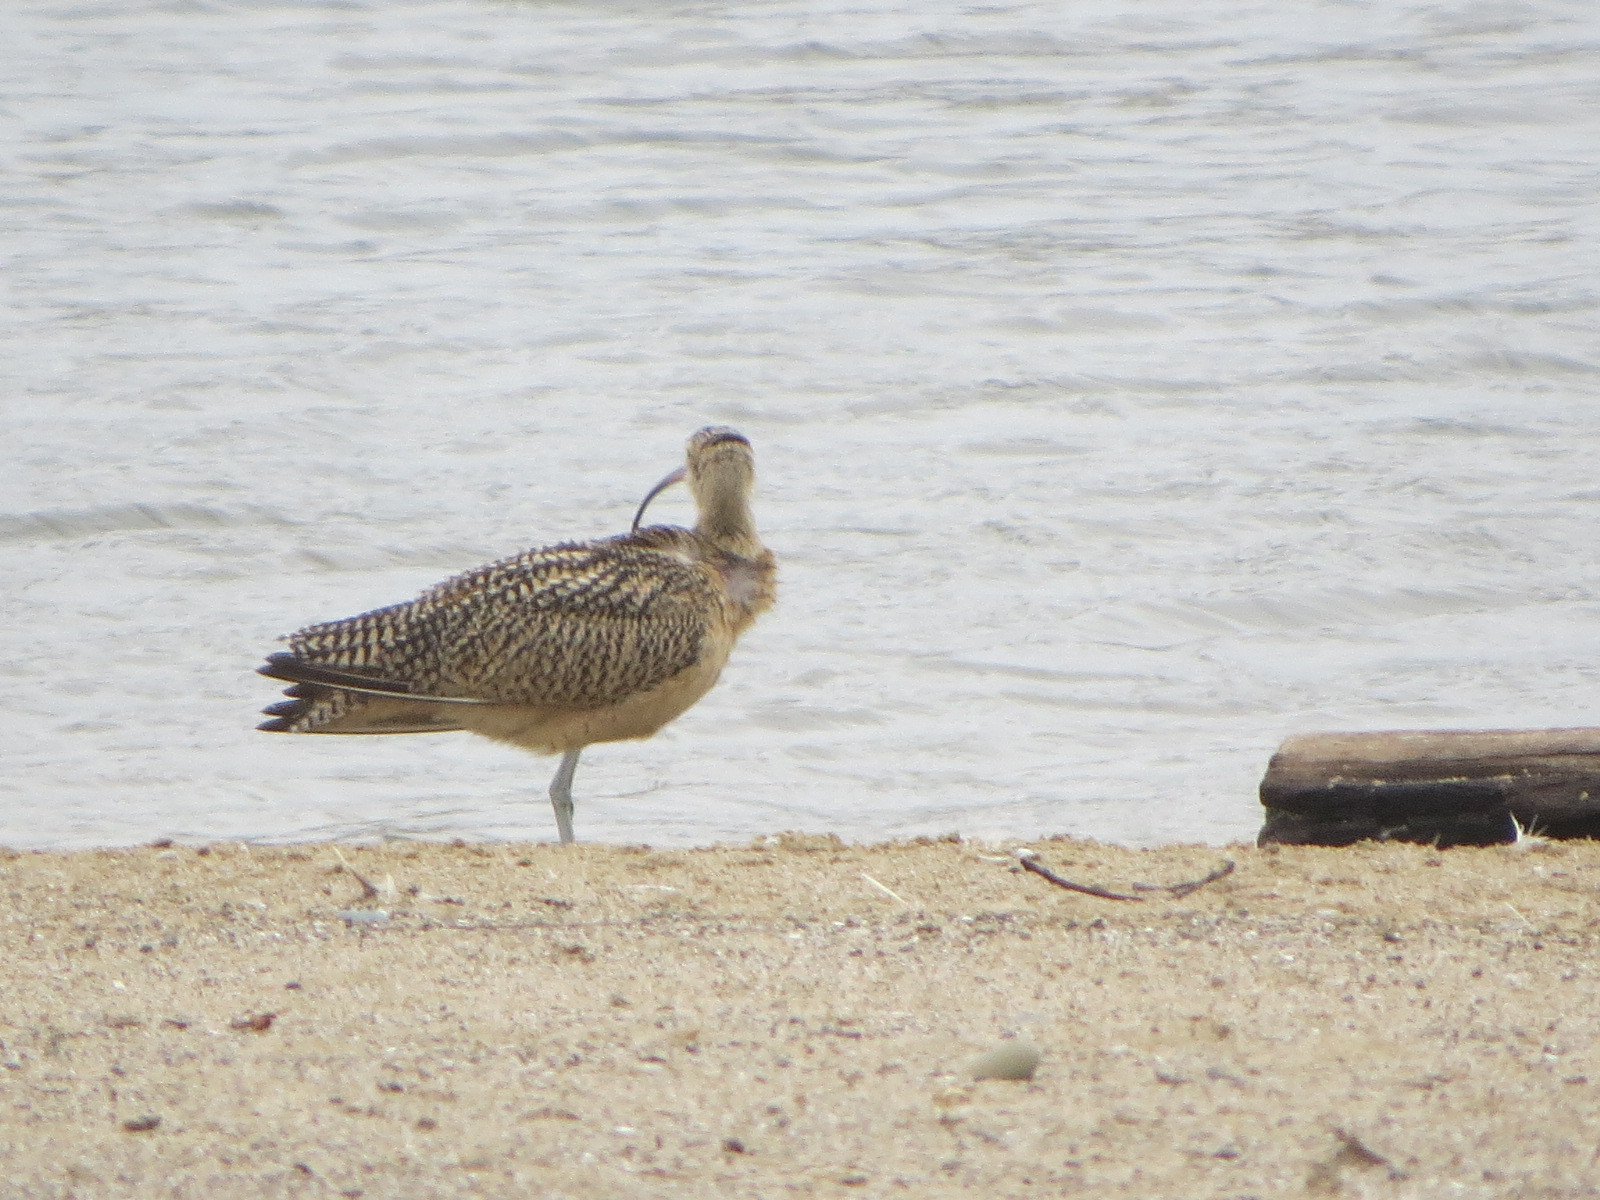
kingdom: Animalia
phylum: Chordata
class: Aves
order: Charadriiformes
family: Scolopacidae
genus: Numenius
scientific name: Numenius americanus
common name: Long-billed curlew
